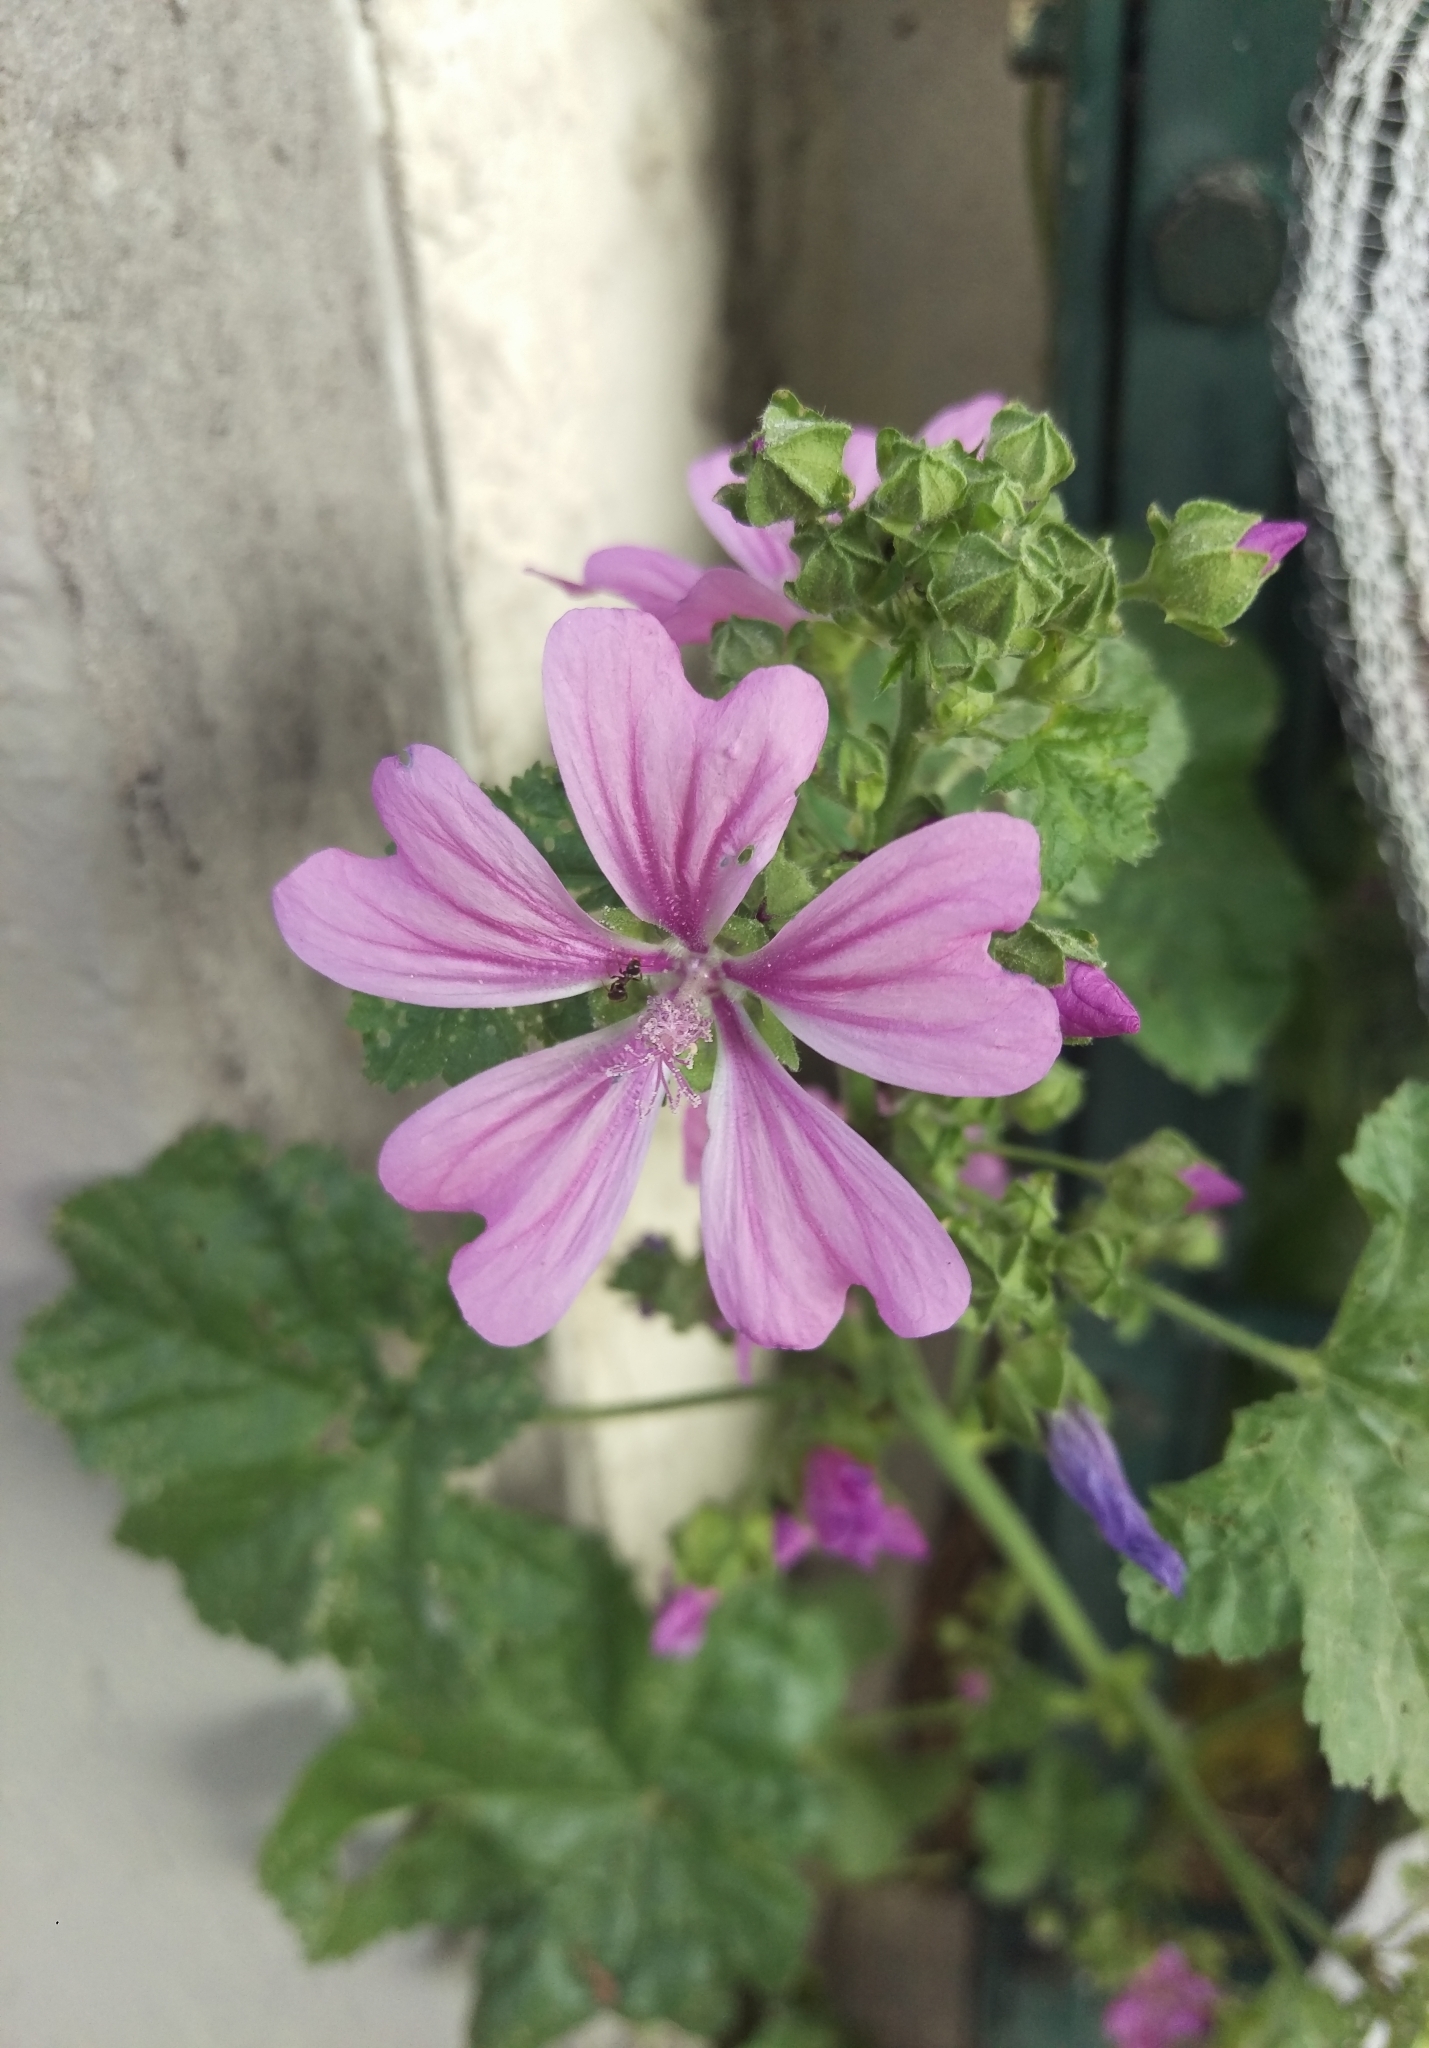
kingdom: Plantae
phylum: Tracheophyta
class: Magnoliopsida
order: Malvales
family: Malvaceae
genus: Malva
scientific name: Malva sylvestris
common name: Common mallow
